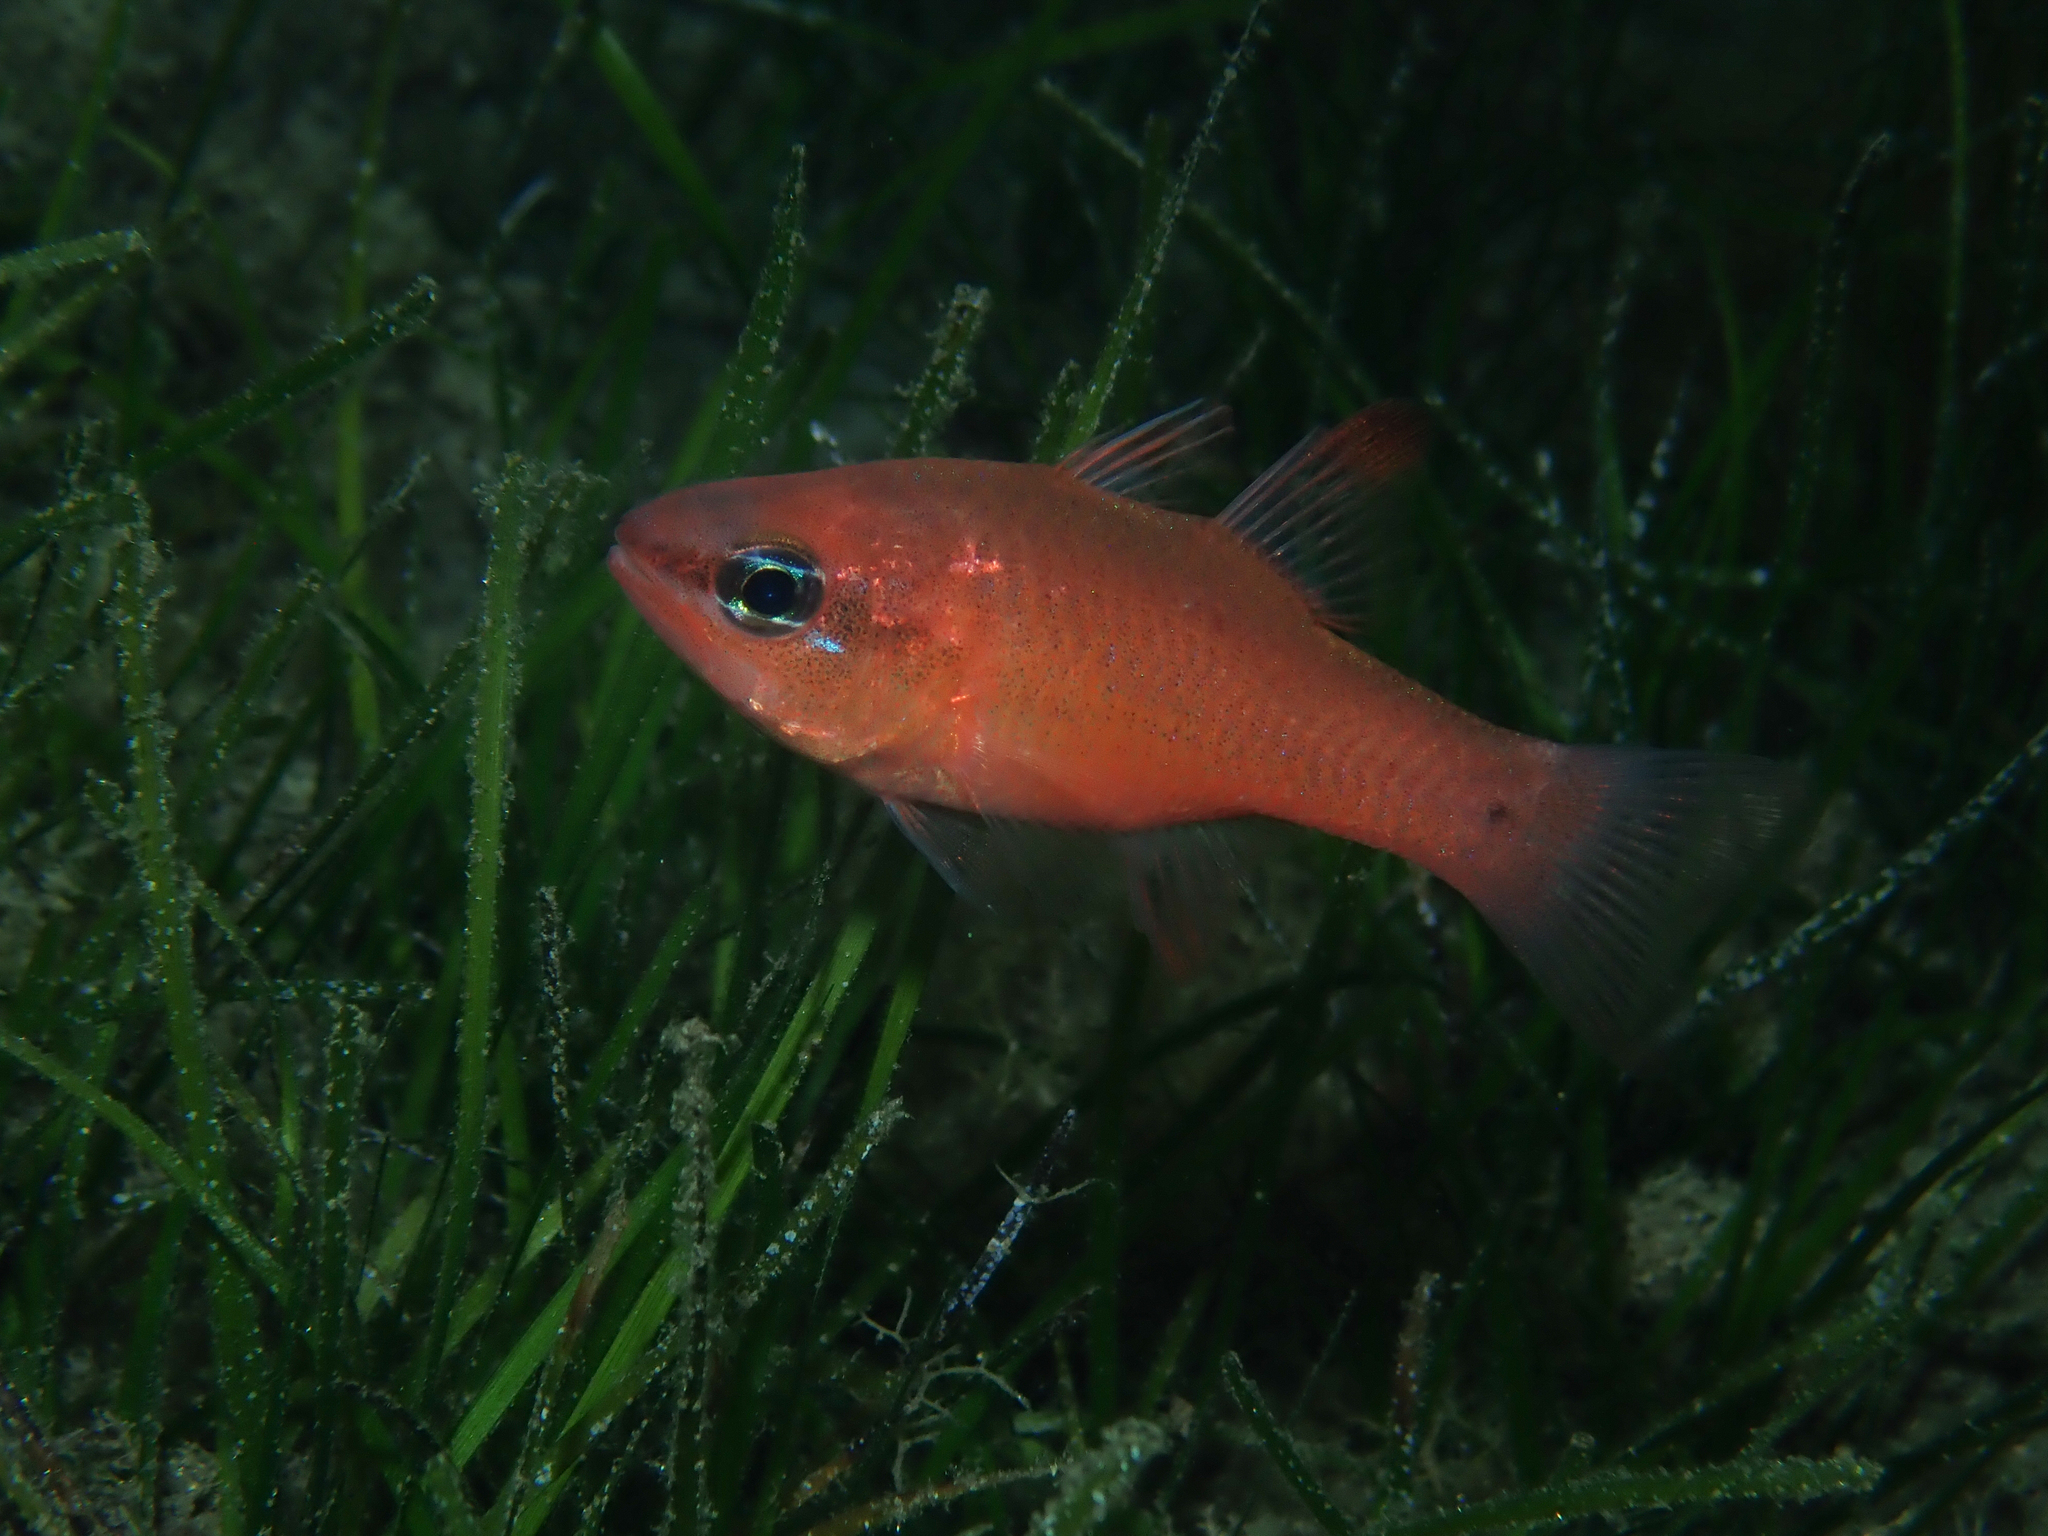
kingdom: Animalia
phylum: Chordata
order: Perciformes
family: Apogonidae
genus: Apogon
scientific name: Apogon imberbis
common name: Cardinal fish
